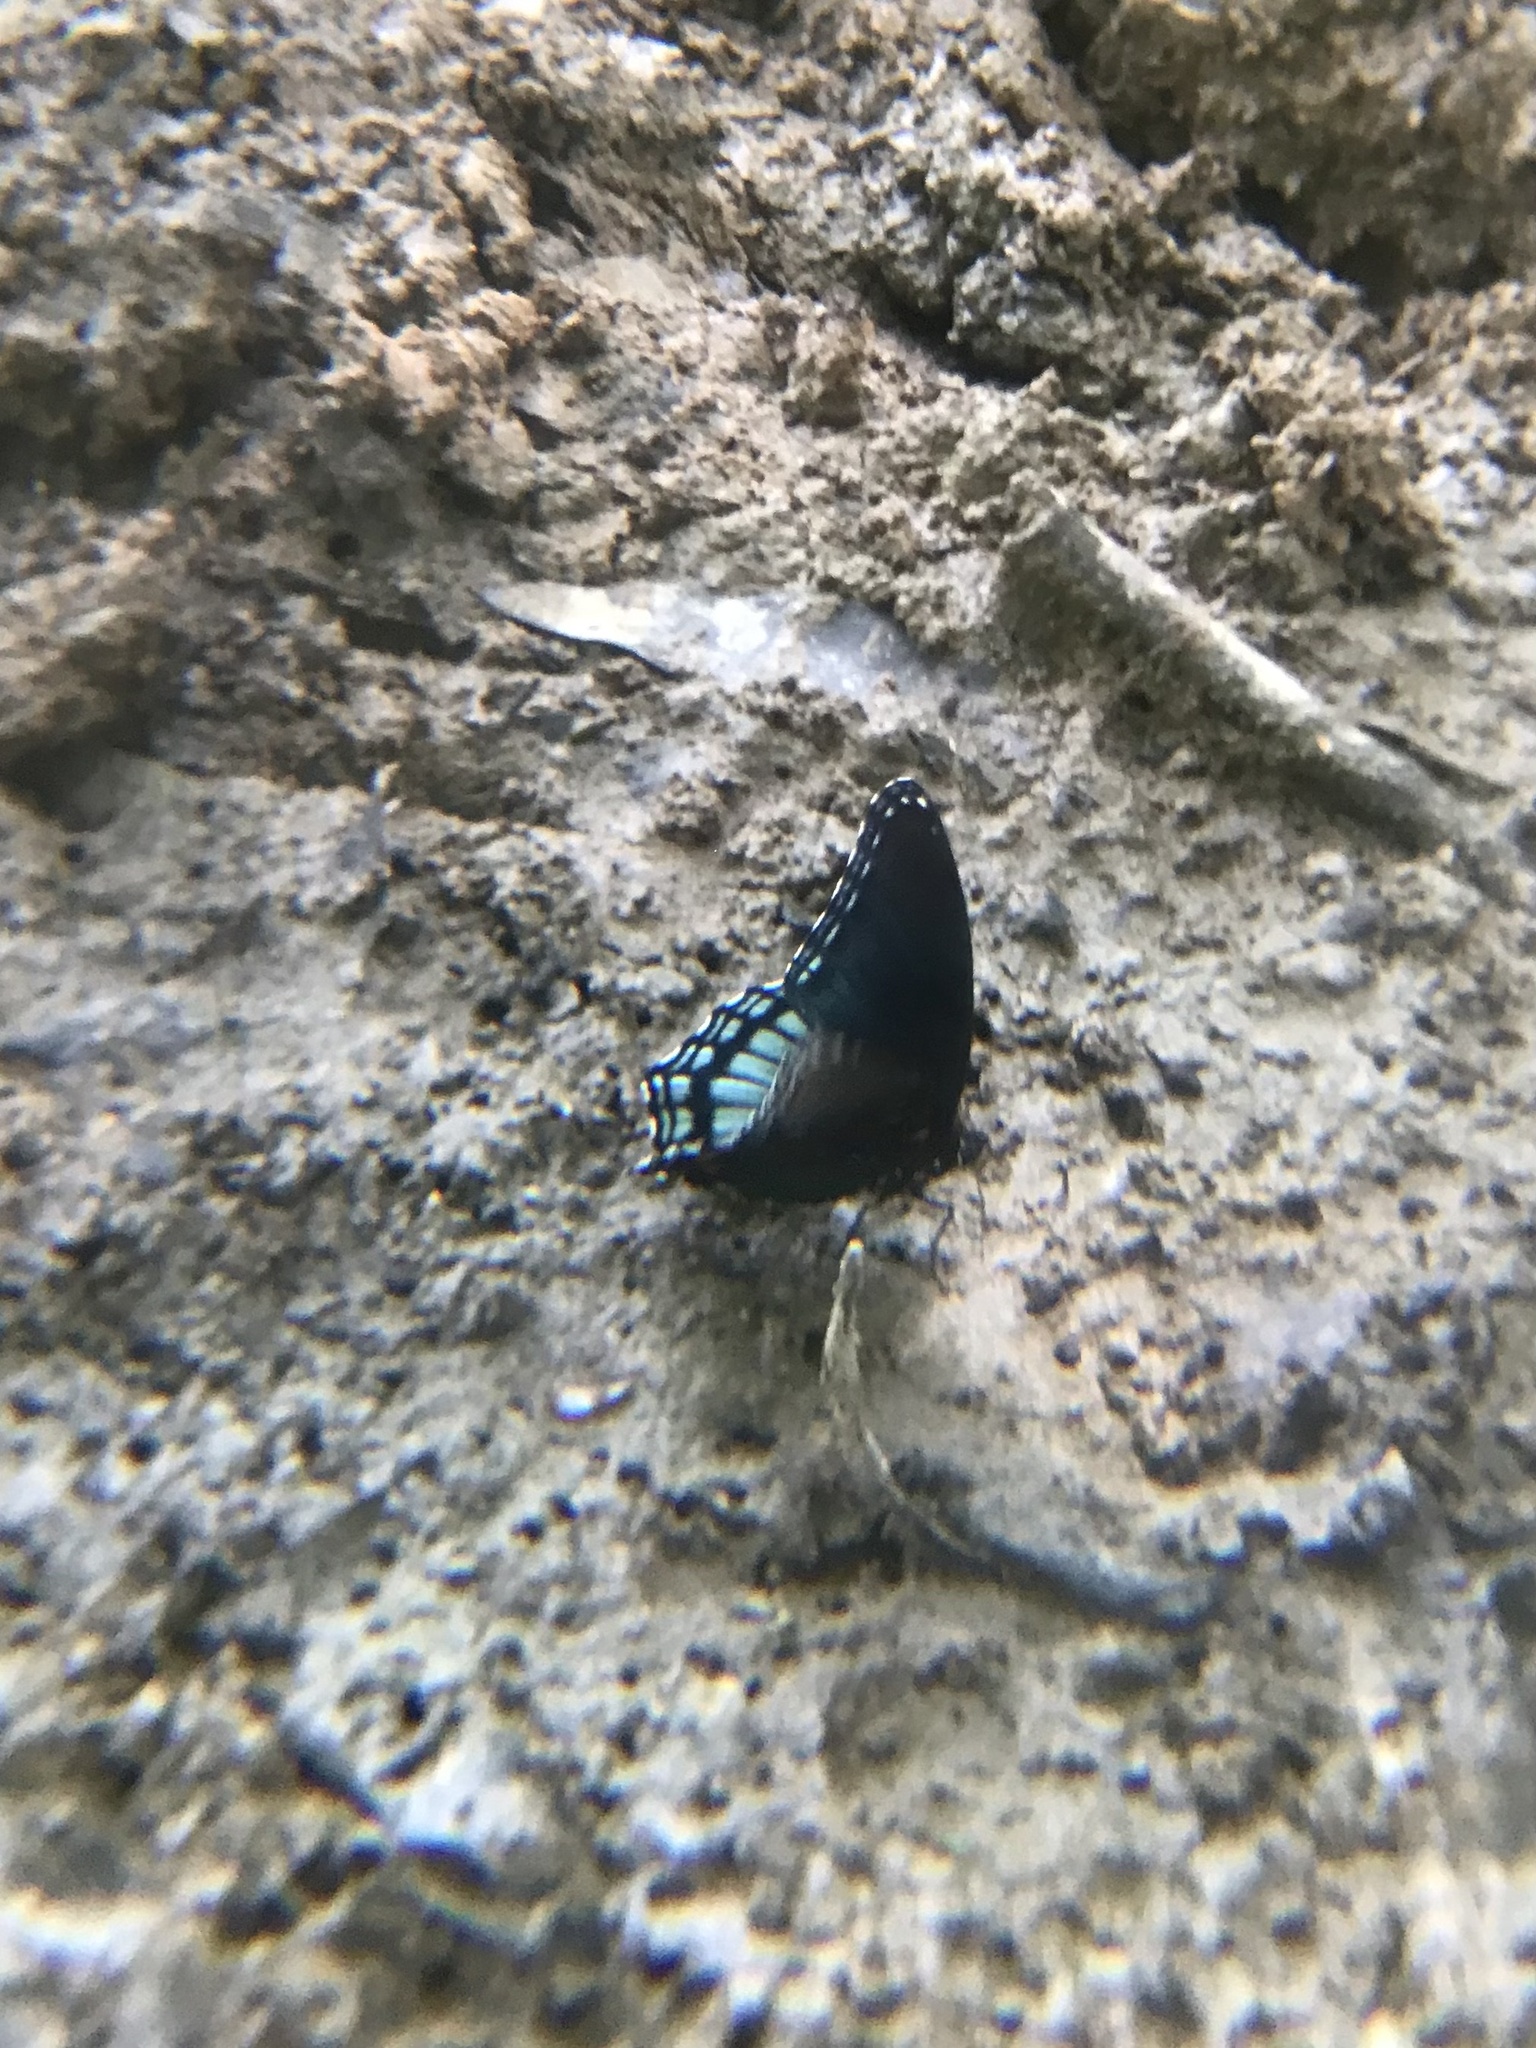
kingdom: Animalia
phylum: Arthropoda
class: Insecta
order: Lepidoptera
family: Nymphalidae
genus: Limenitis
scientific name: Limenitis astyanax
